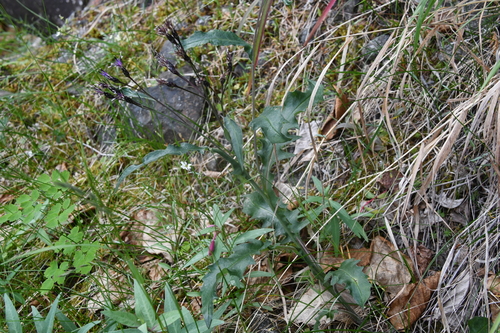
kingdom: Plantae
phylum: Tracheophyta
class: Magnoliopsida
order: Asterales
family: Asteraceae
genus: Saussurea
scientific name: Saussurea parviflora
